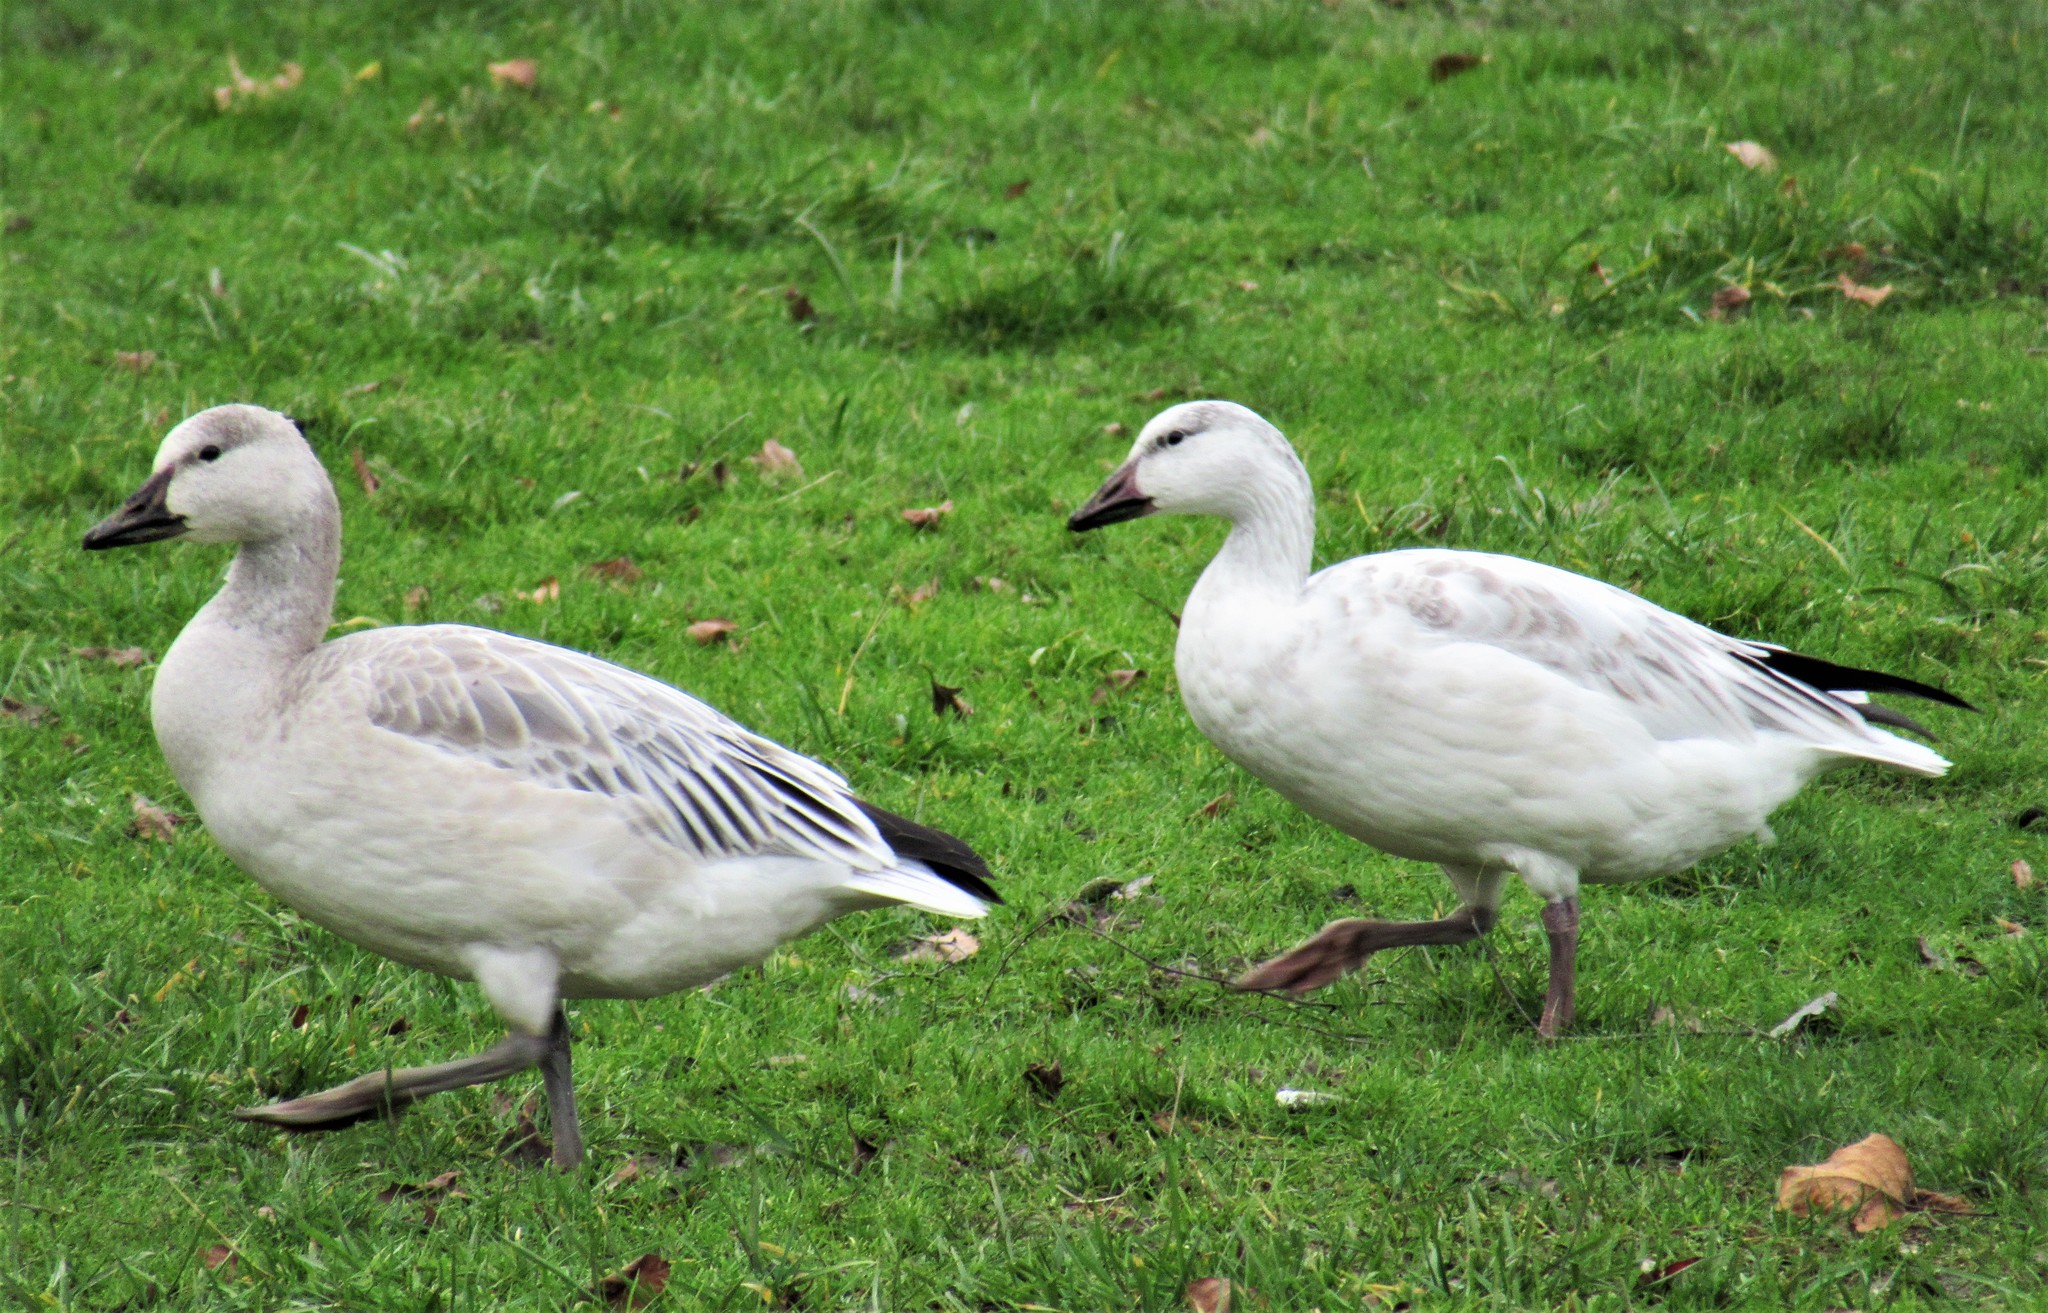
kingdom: Animalia
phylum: Chordata
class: Aves
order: Anseriformes
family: Anatidae
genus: Anser
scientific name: Anser caerulescens
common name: Snow goose
